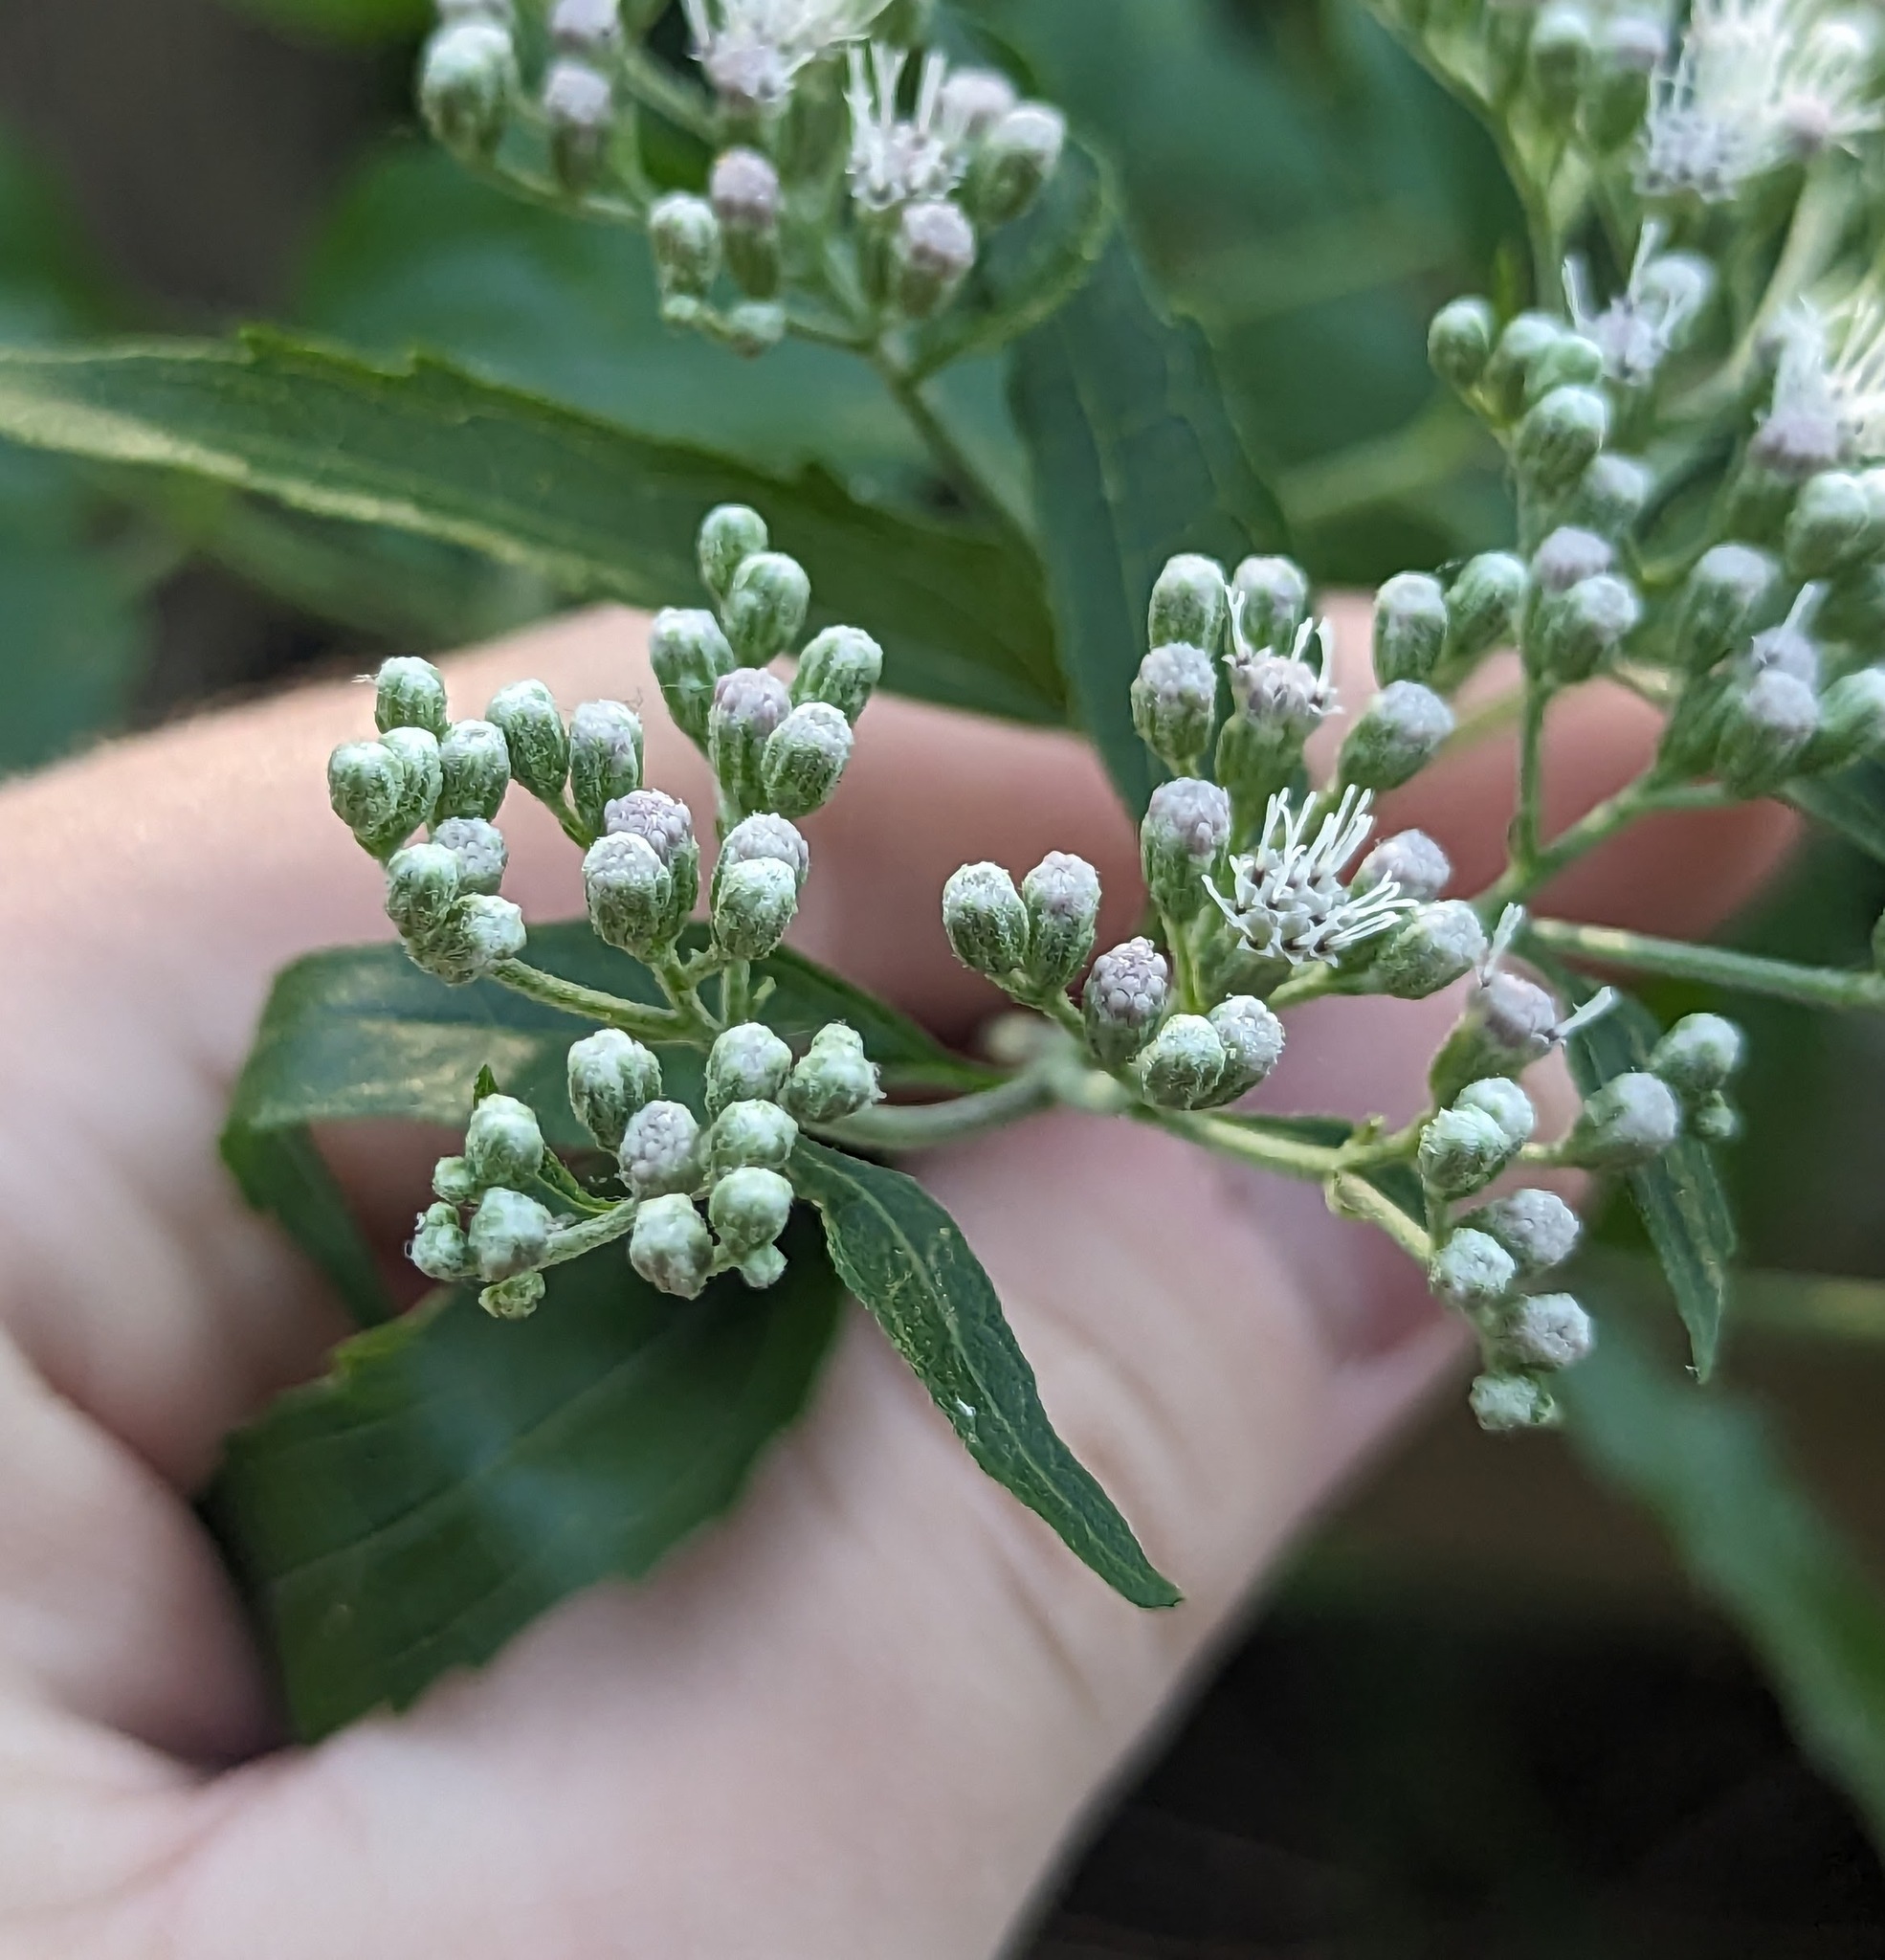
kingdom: Plantae
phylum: Tracheophyta
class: Magnoliopsida
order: Asterales
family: Asteraceae
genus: Eupatorium
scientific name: Eupatorium serotinum
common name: Late boneset
